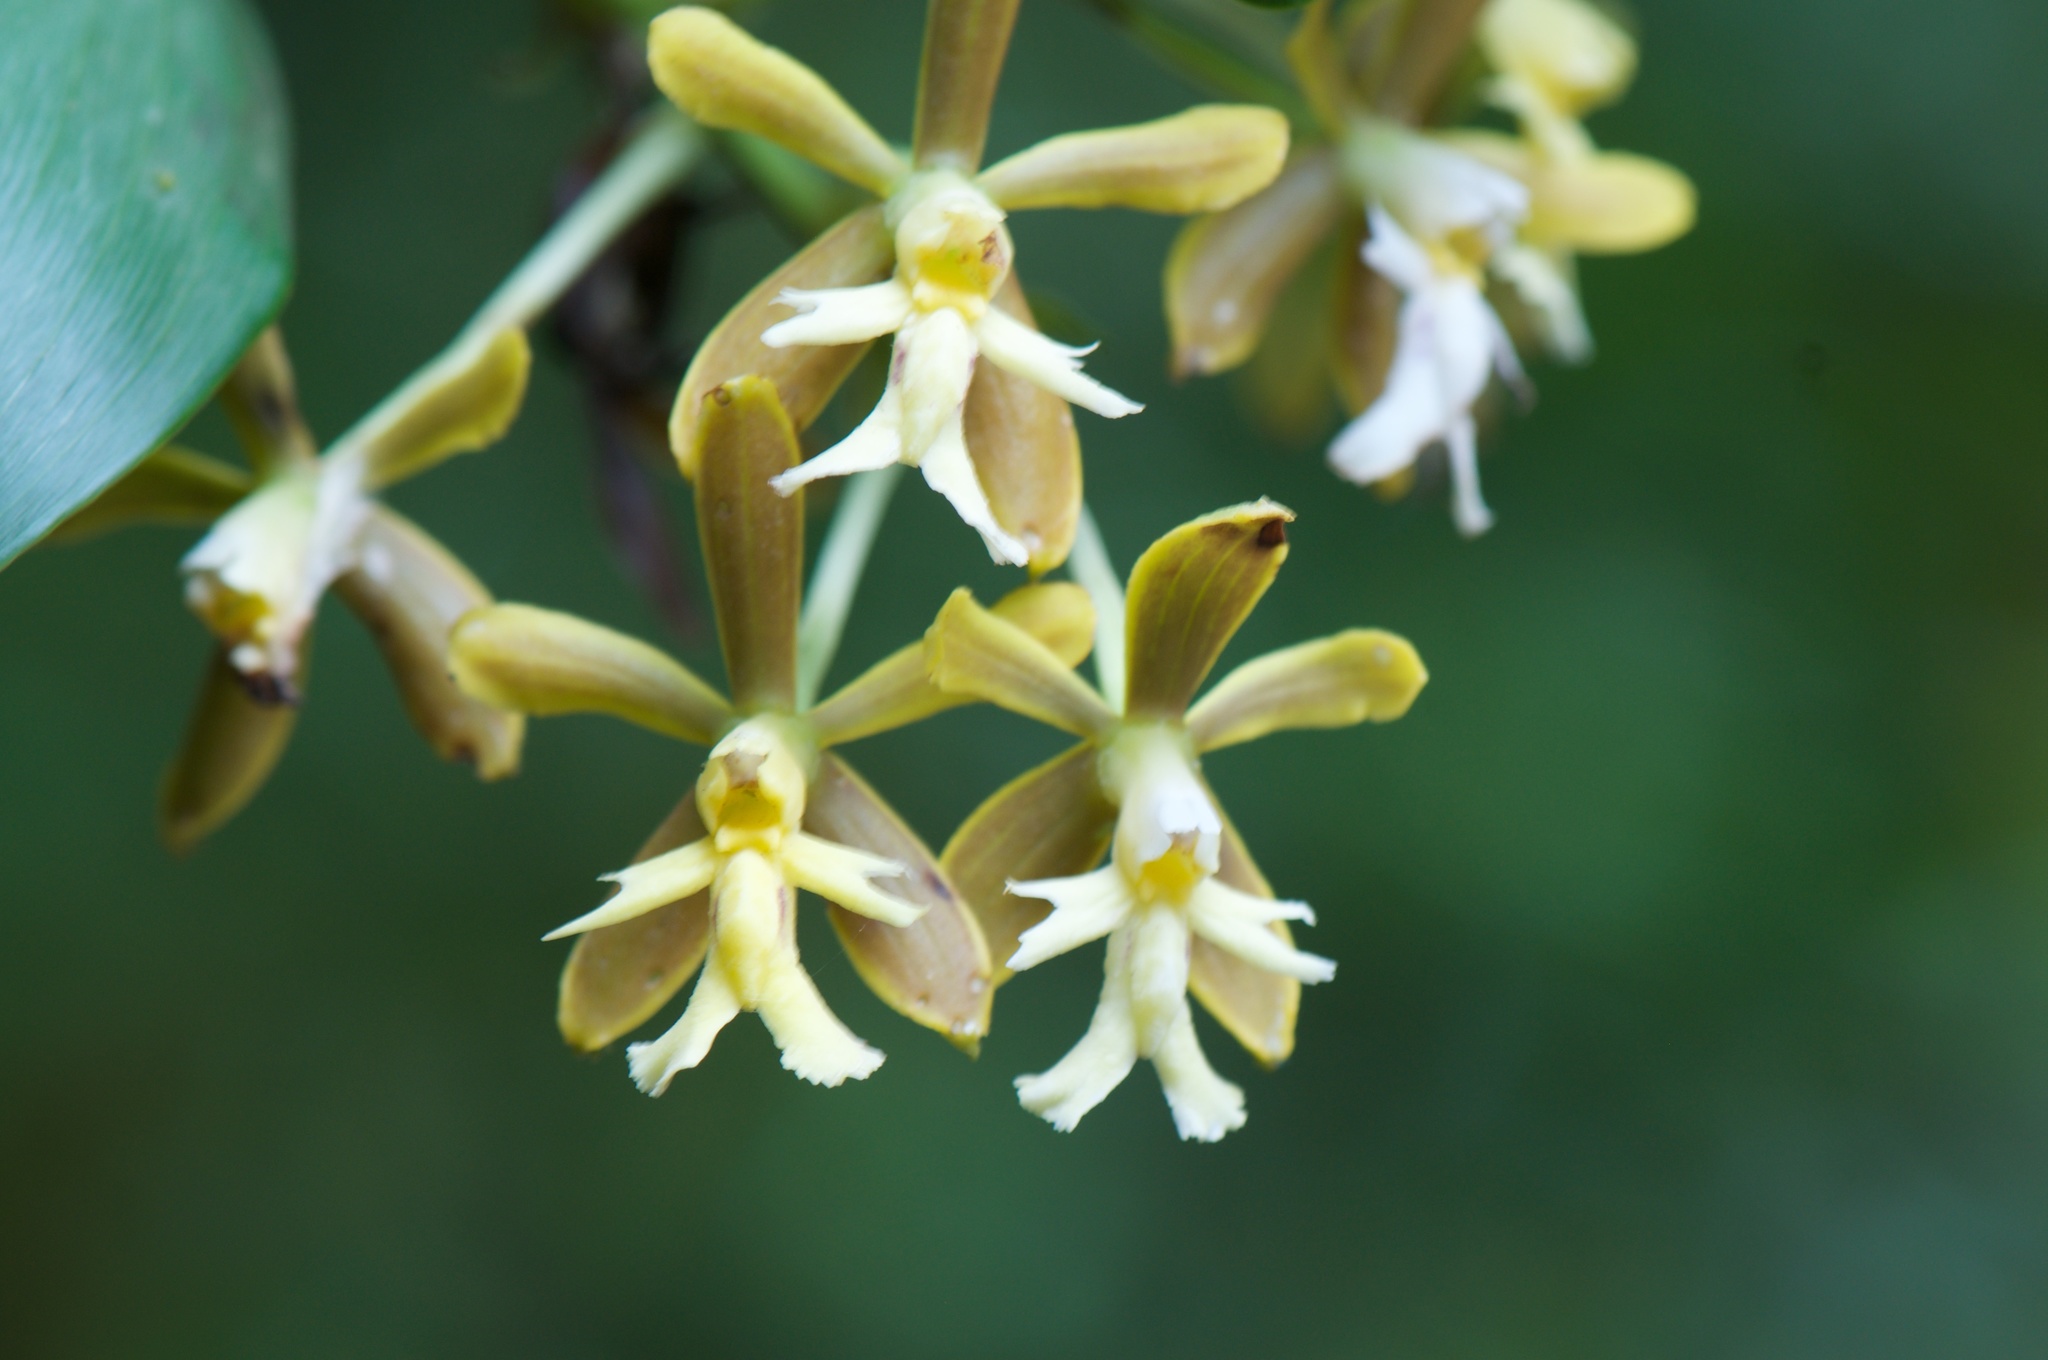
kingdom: Plantae
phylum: Tracheophyta
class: Liliopsida
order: Asparagales
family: Orchidaceae
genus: Epidendrum
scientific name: Epidendrum exasperatum
